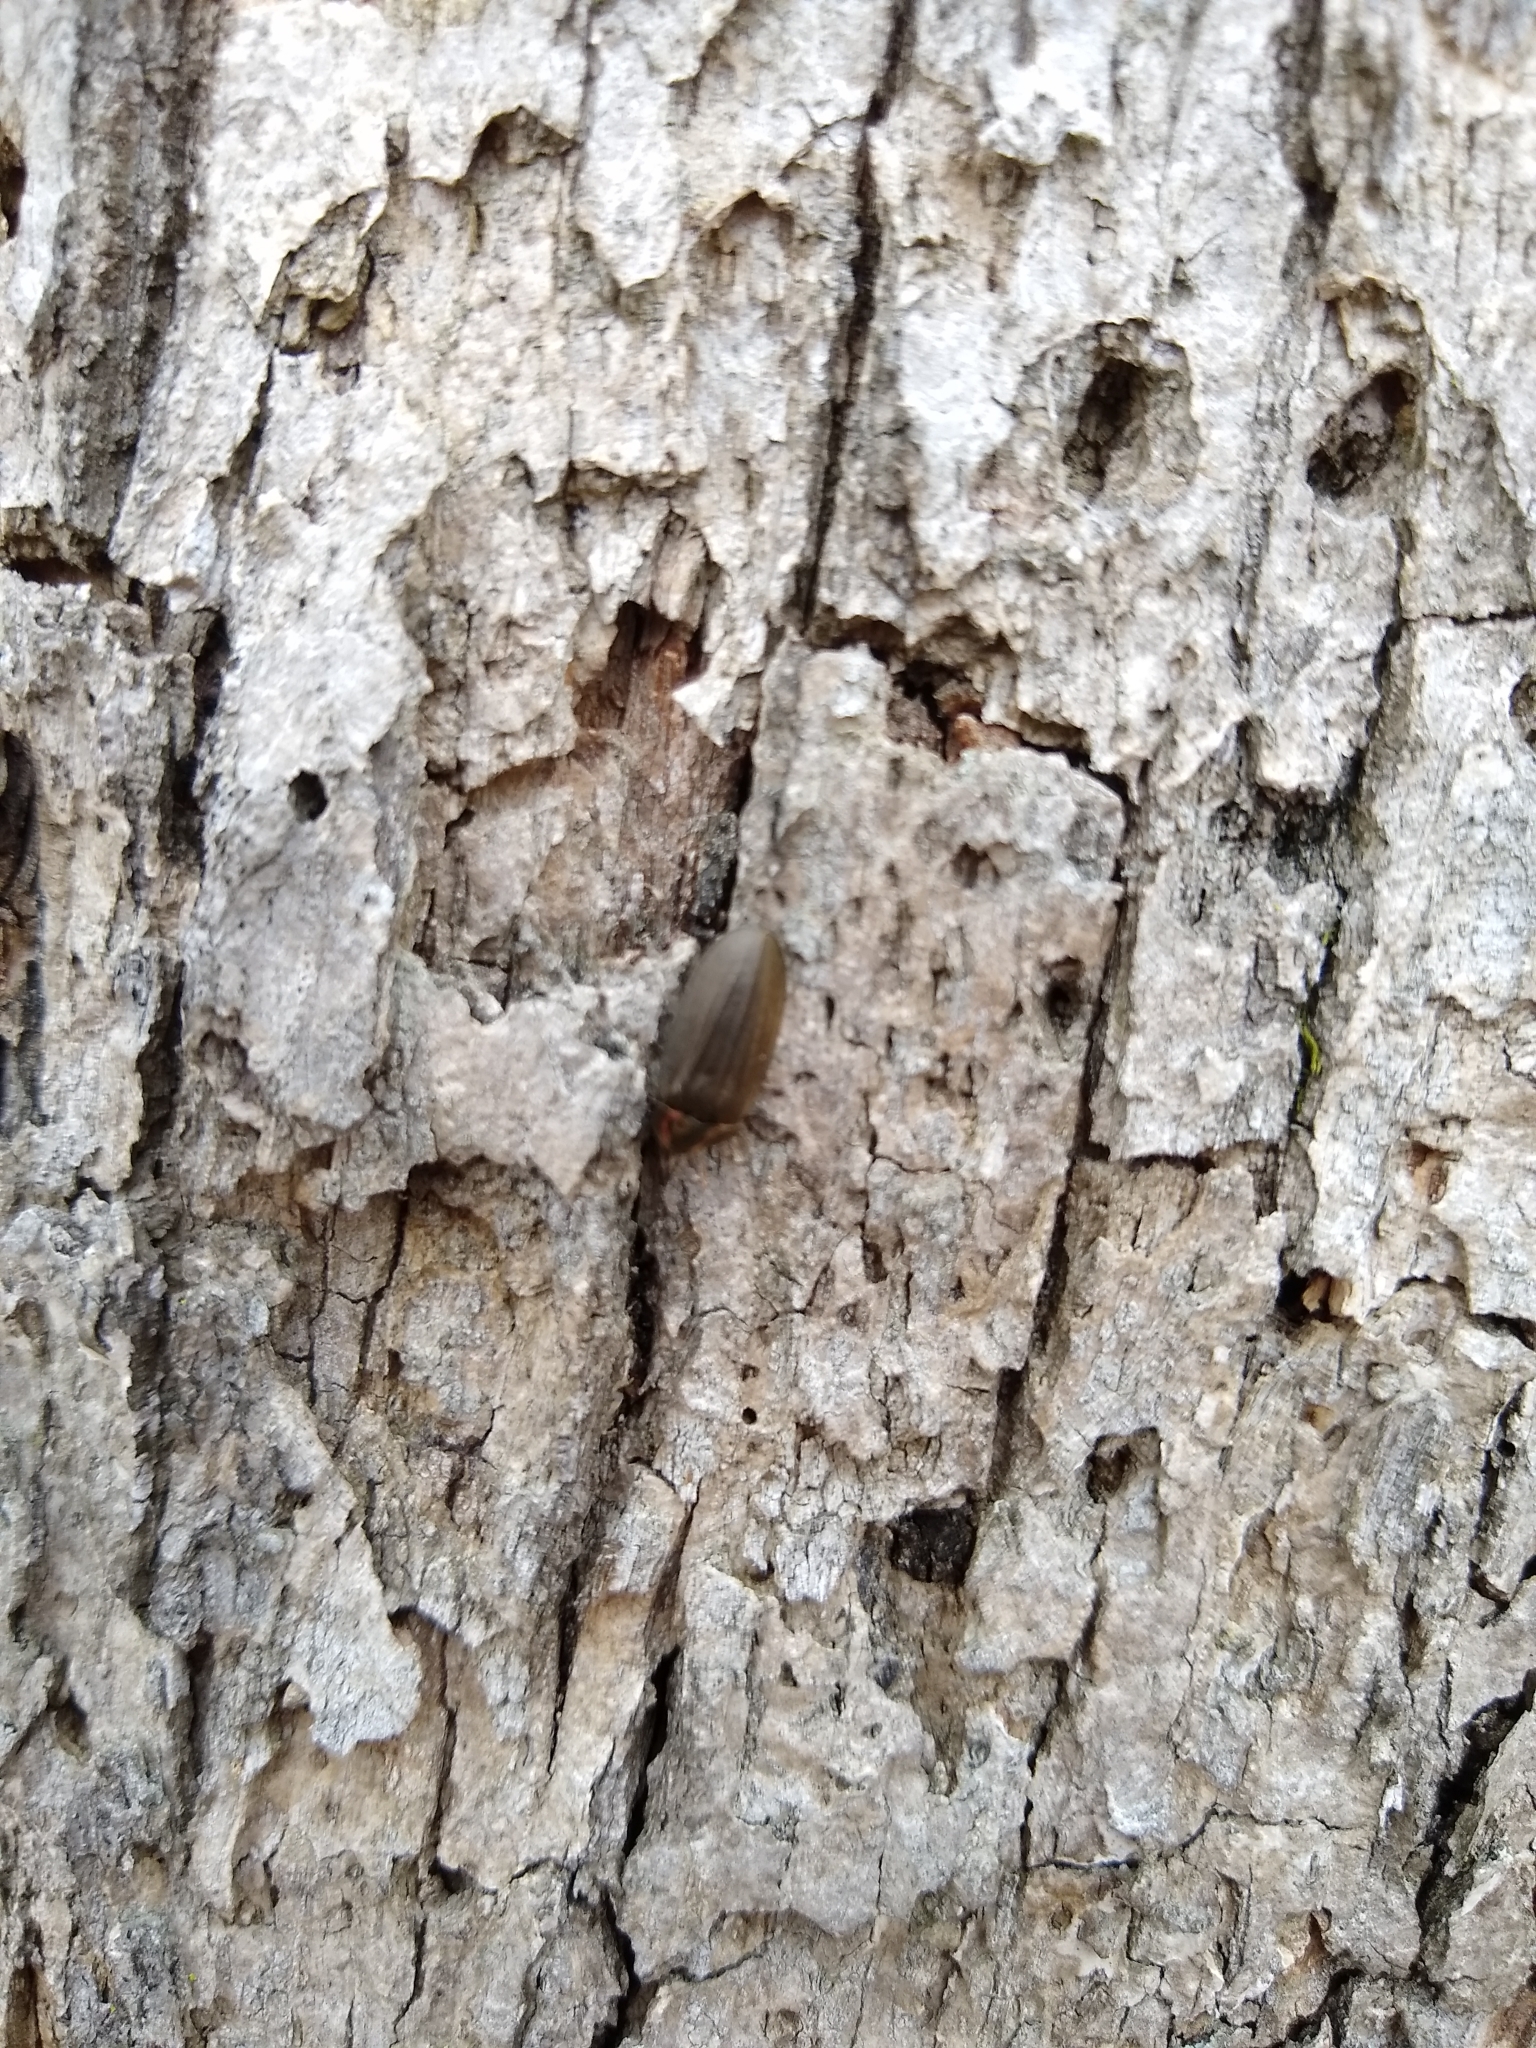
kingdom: Animalia
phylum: Arthropoda
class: Insecta
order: Coleoptera
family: Lampyridae
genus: Photinus
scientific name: Photinus corrusca
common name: Winter firefly
